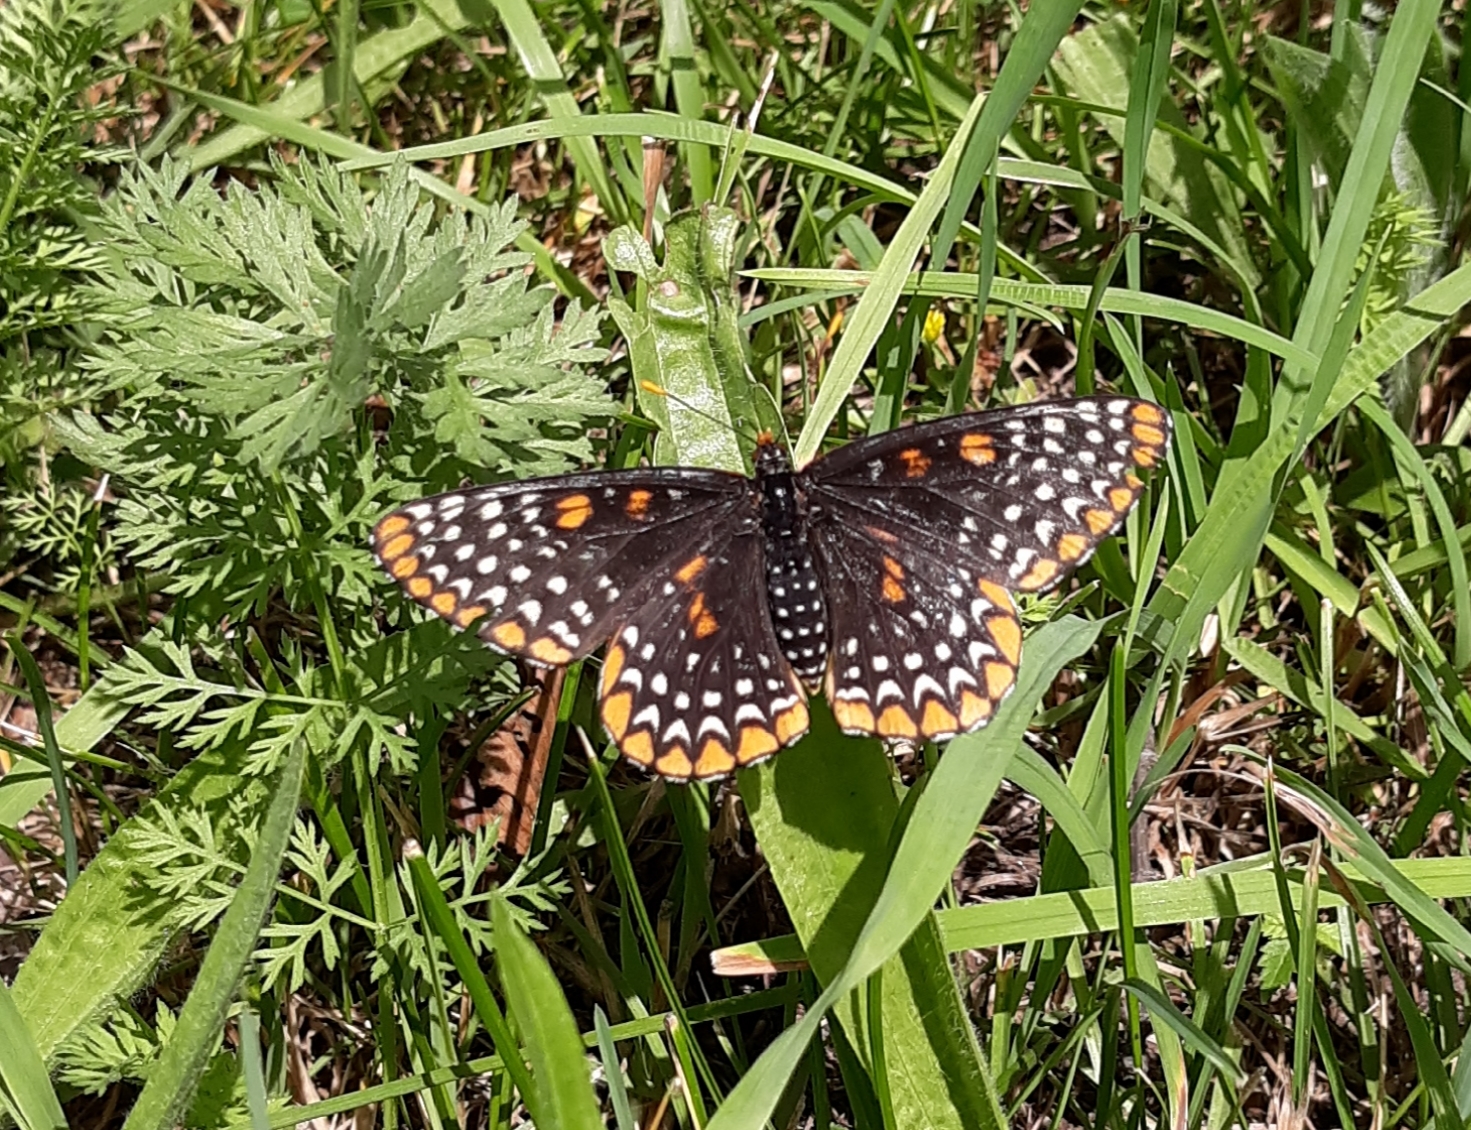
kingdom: Animalia
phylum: Arthropoda
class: Insecta
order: Lepidoptera
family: Nymphalidae
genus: Euphydryas
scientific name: Euphydryas phaeton
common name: Baltimore checkerspot
